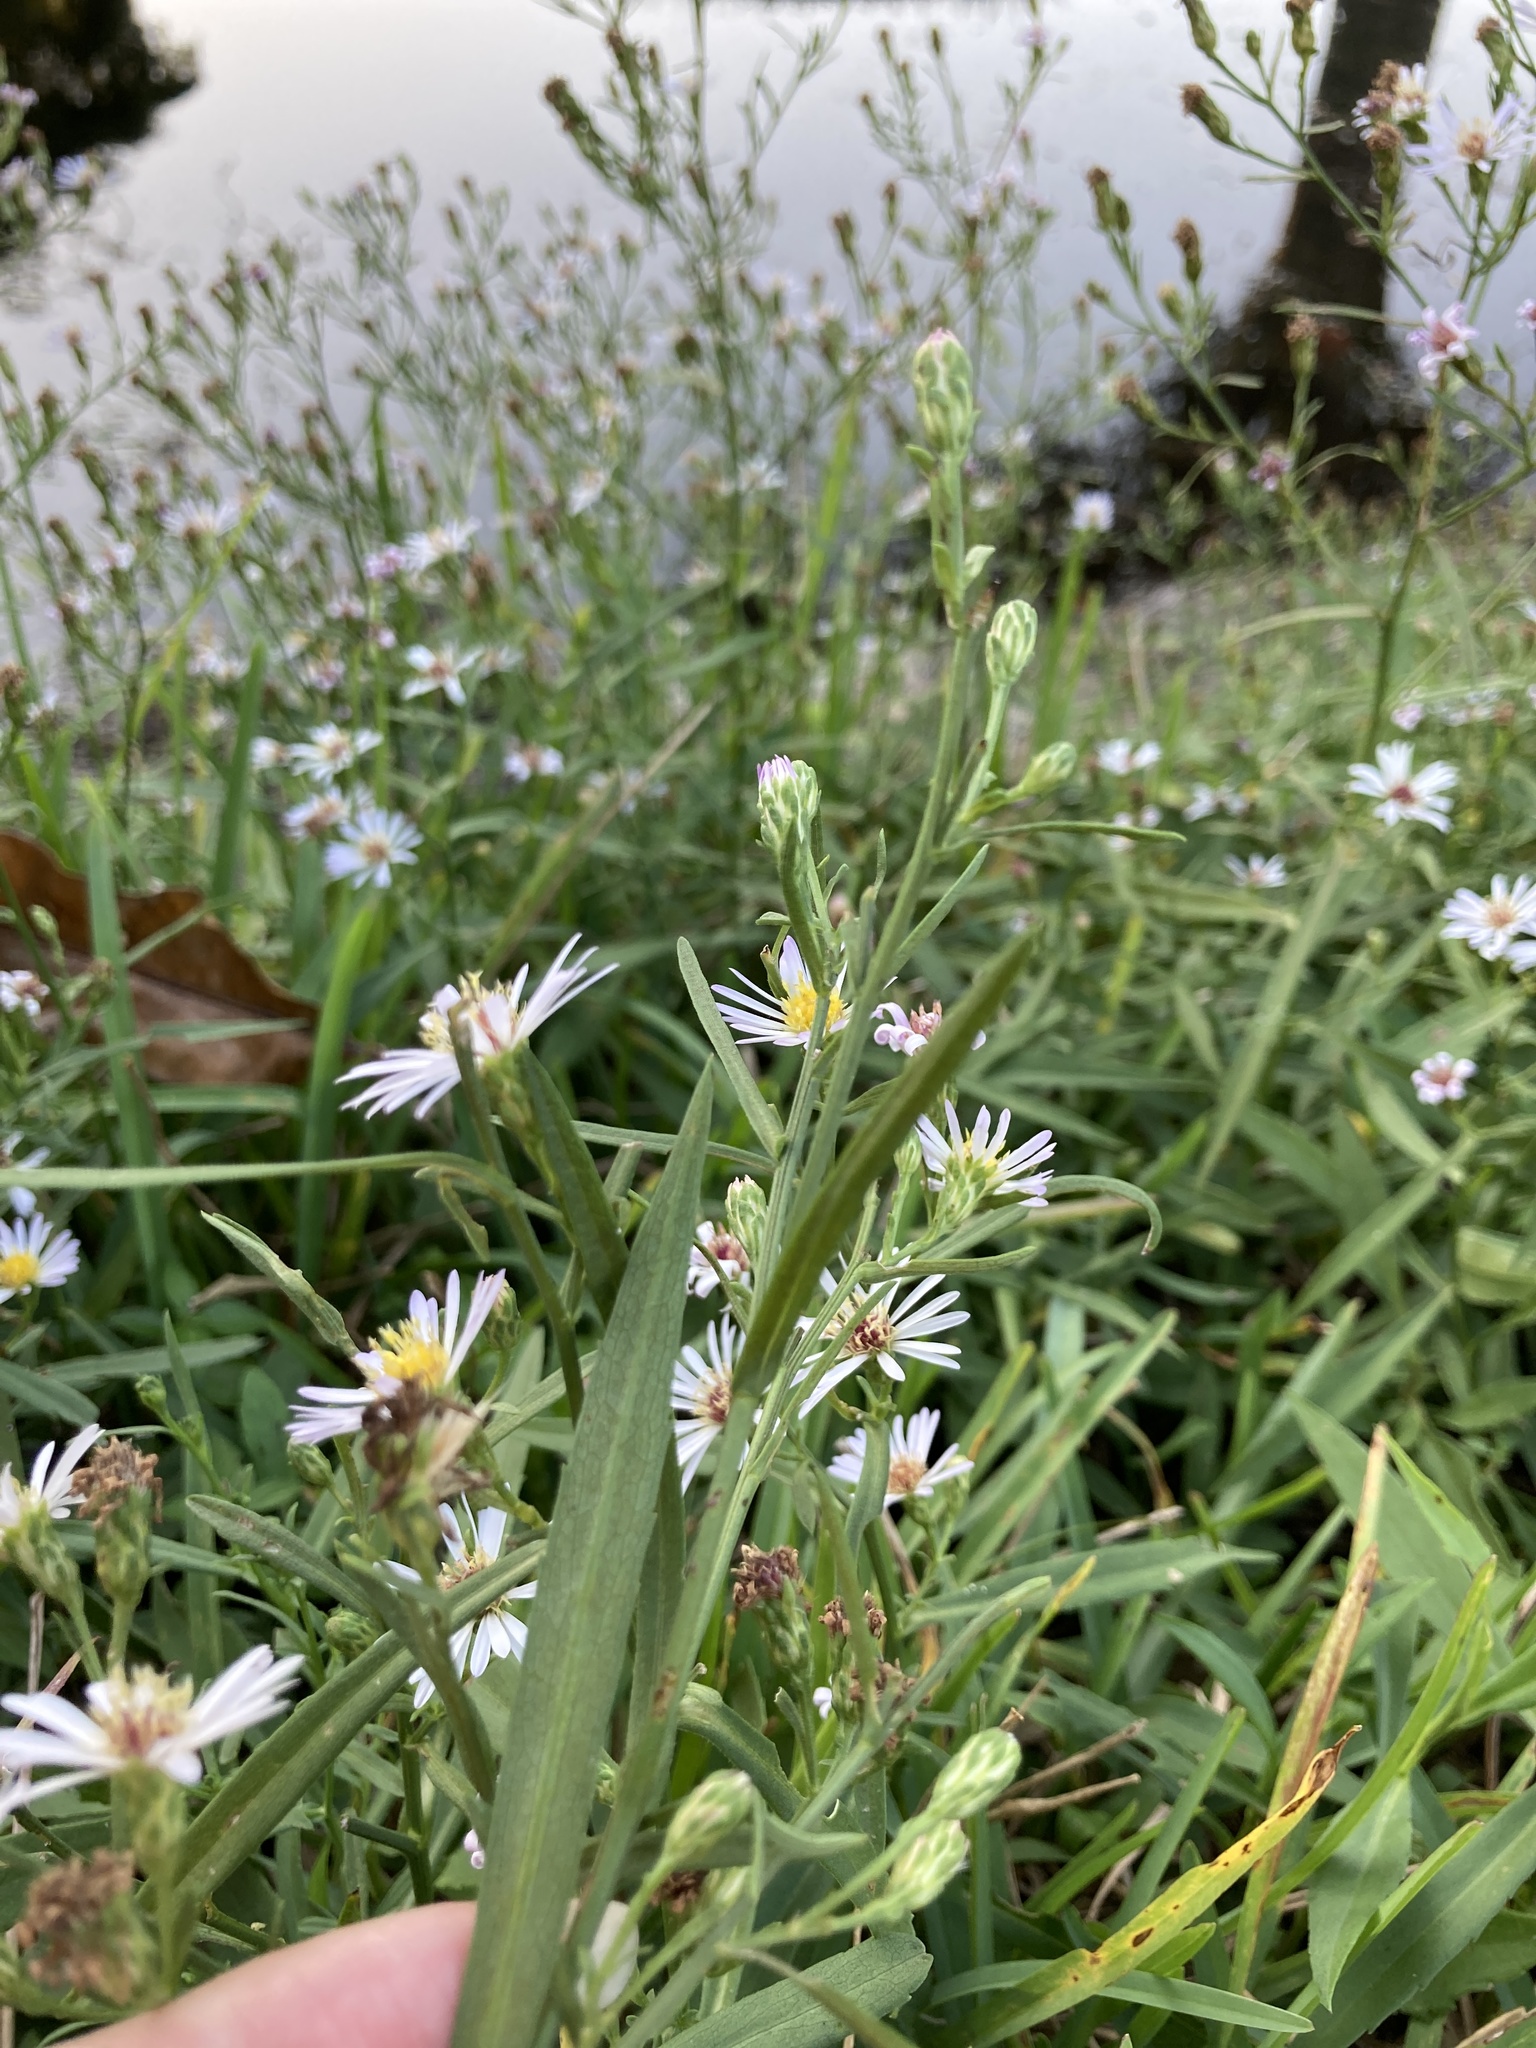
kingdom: Plantae
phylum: Tracheophyta
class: Magnoliopsida
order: Asterales
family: Asteraceae
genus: Symphyotrichum
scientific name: Symphyotrichum simmondsii
